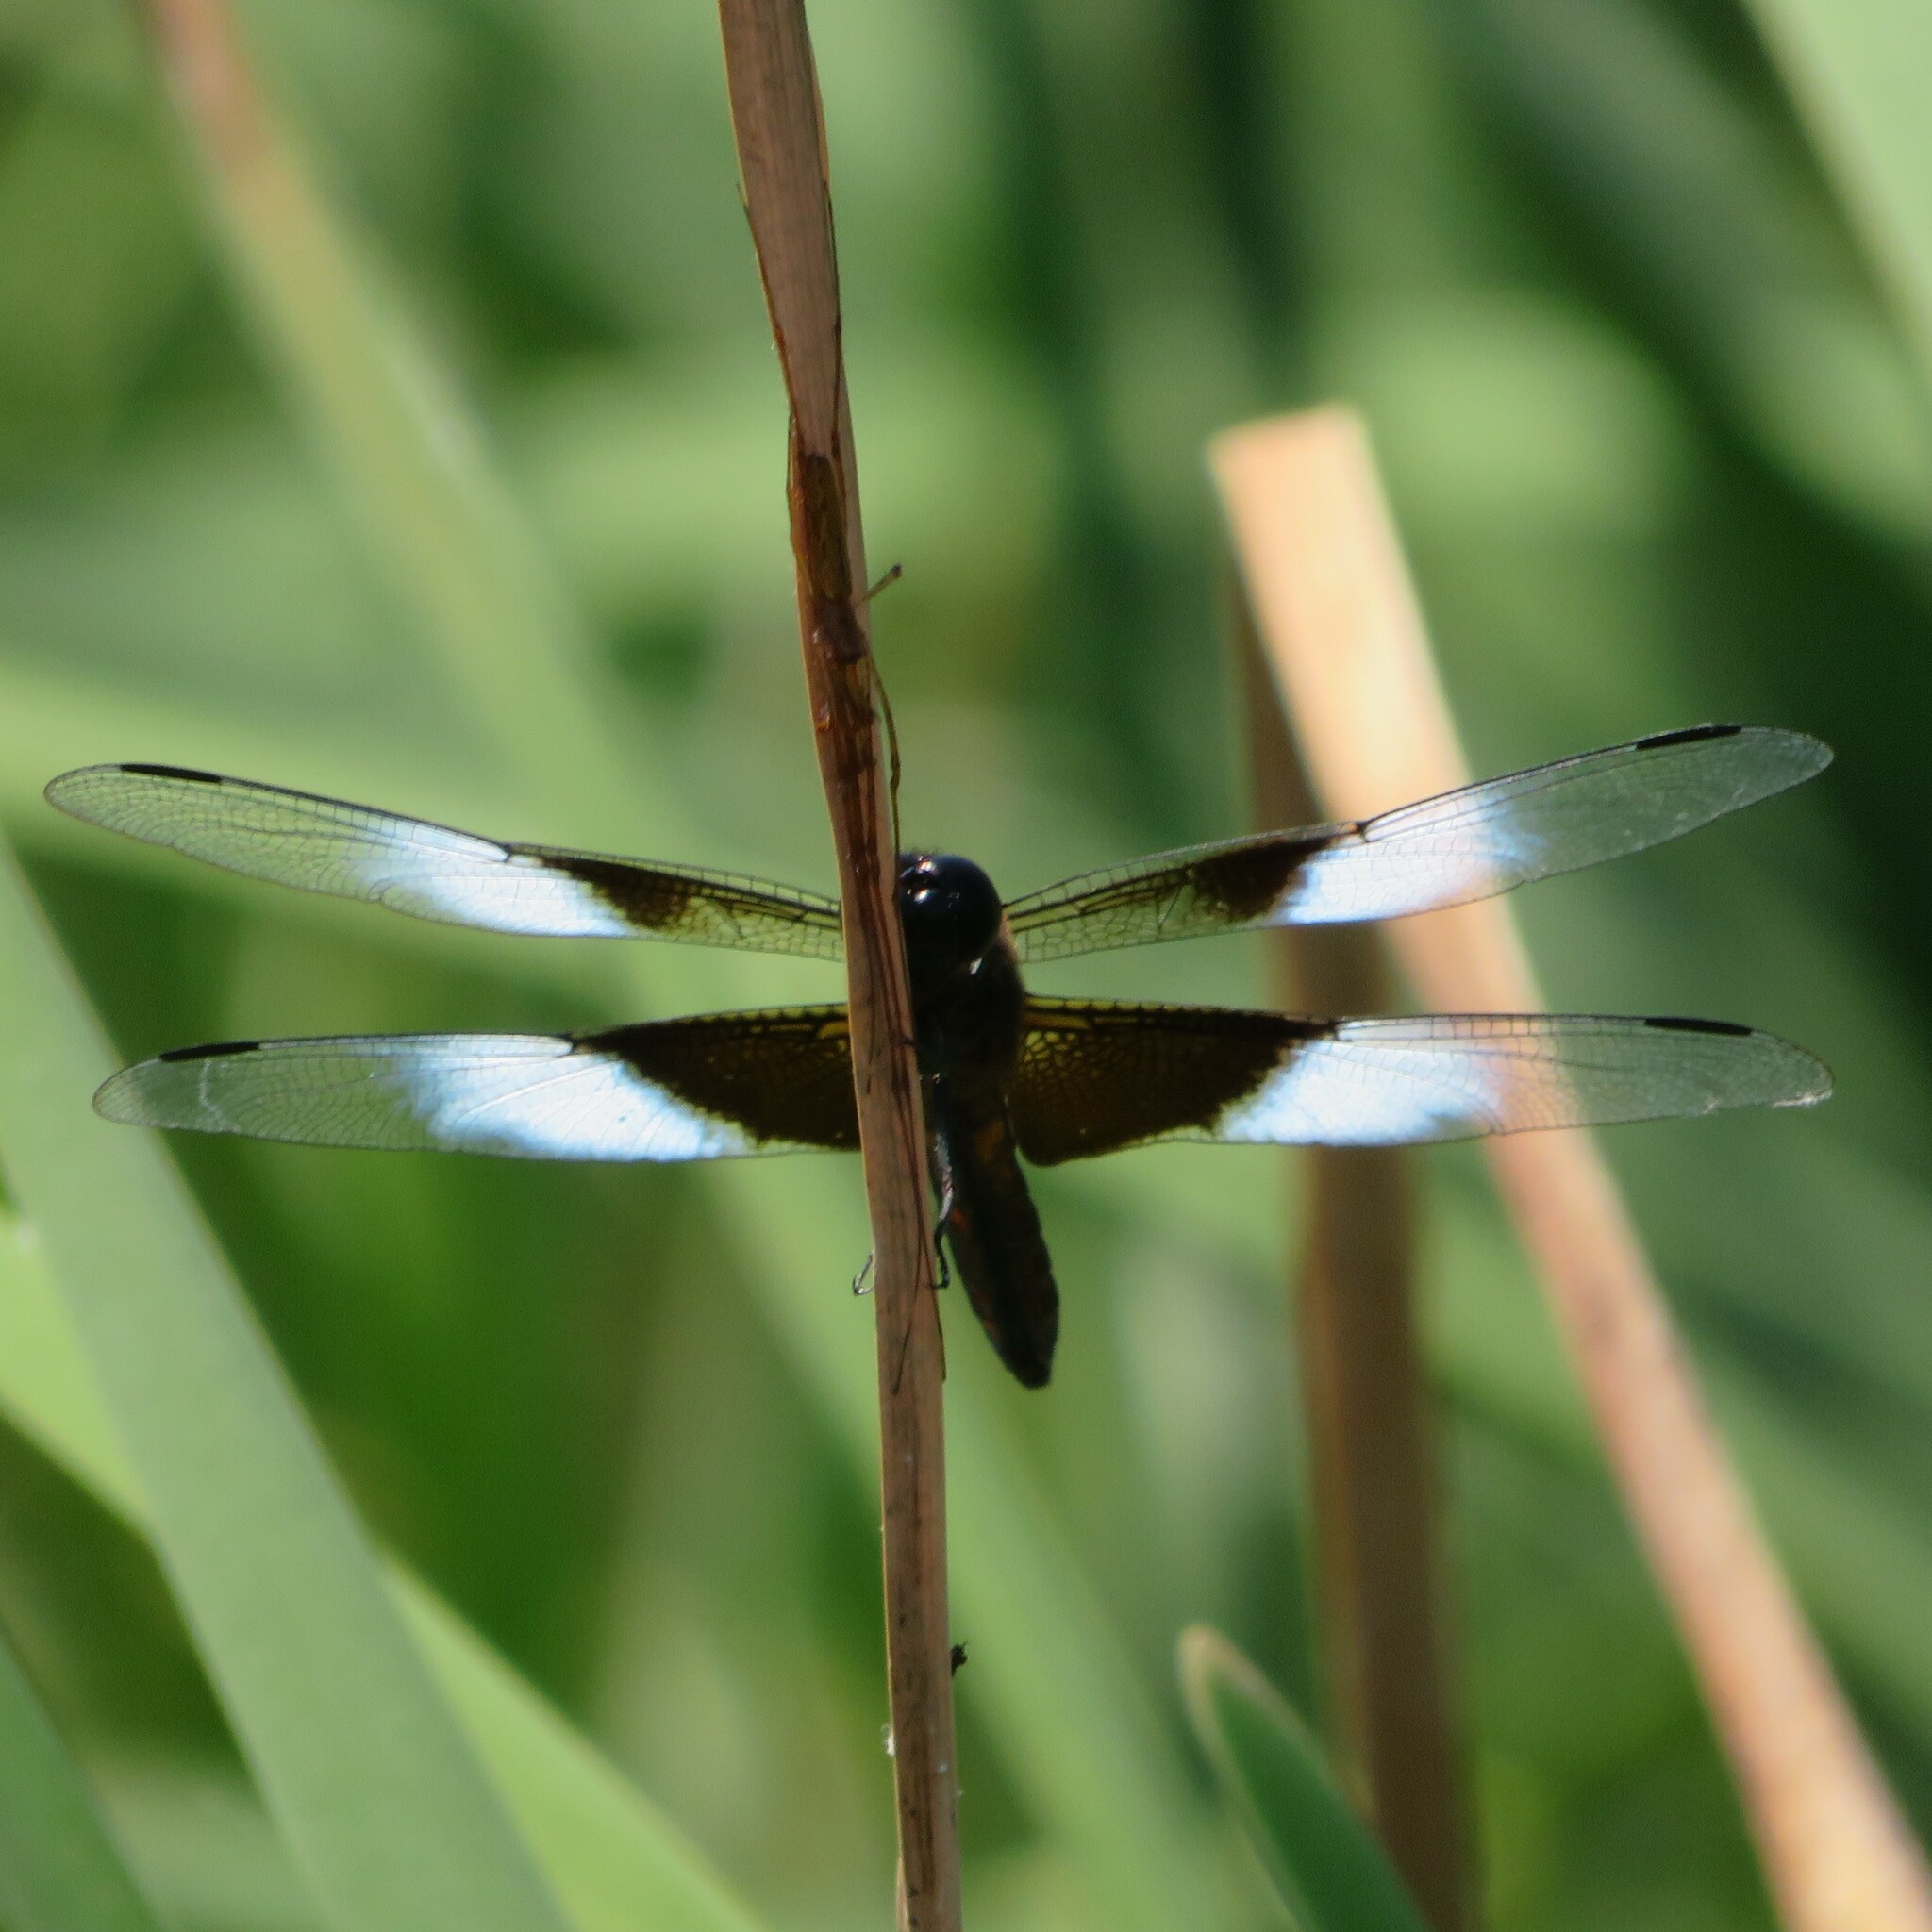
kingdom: Animalia
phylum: Arthropoda
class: Insecta
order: Odonata
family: Libellulidae
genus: Libellula
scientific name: Libellula luctuosa
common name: Widow skimmer
